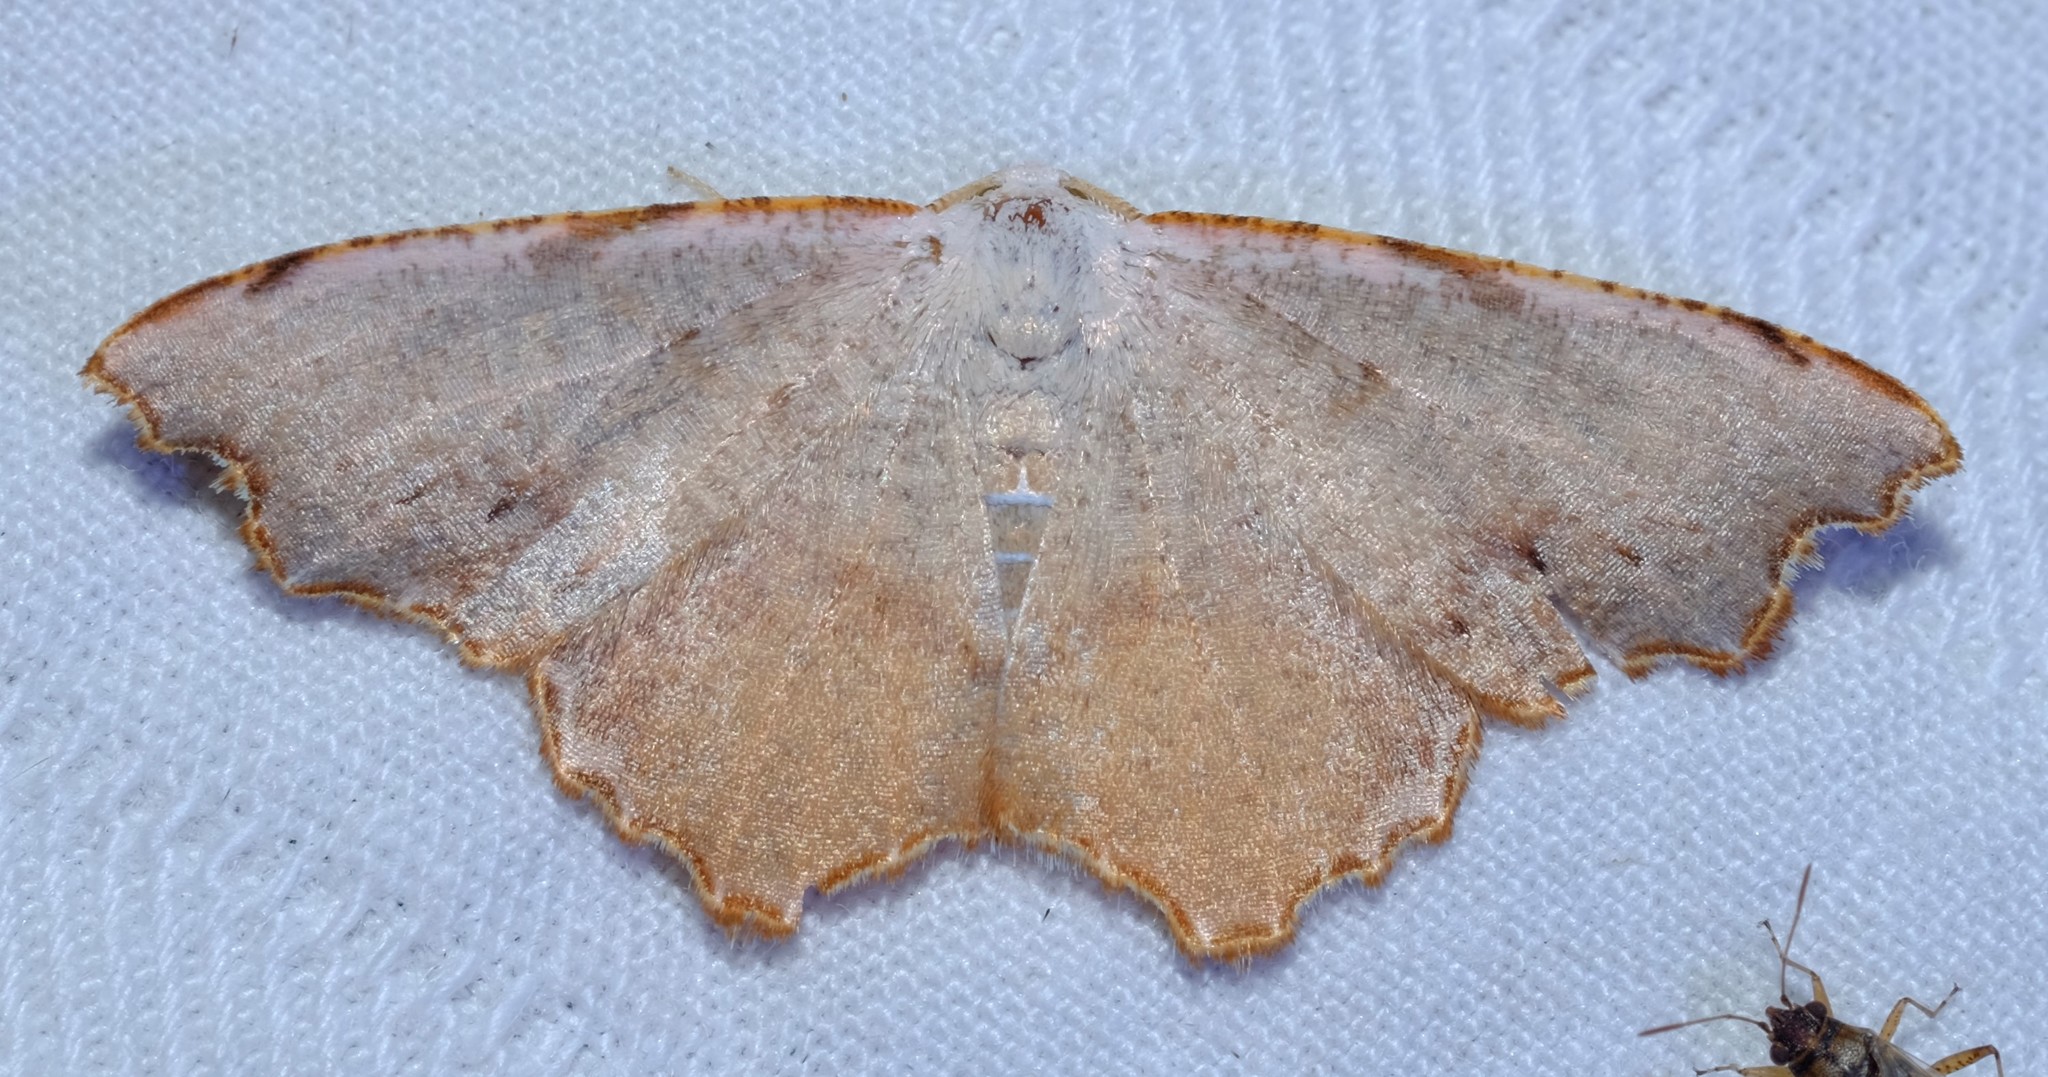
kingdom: Animalia
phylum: Arthropoda
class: Insecta
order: Lepidoptera
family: Geometridae
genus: Epicompsa
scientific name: Epicompsa xanthocrossa
